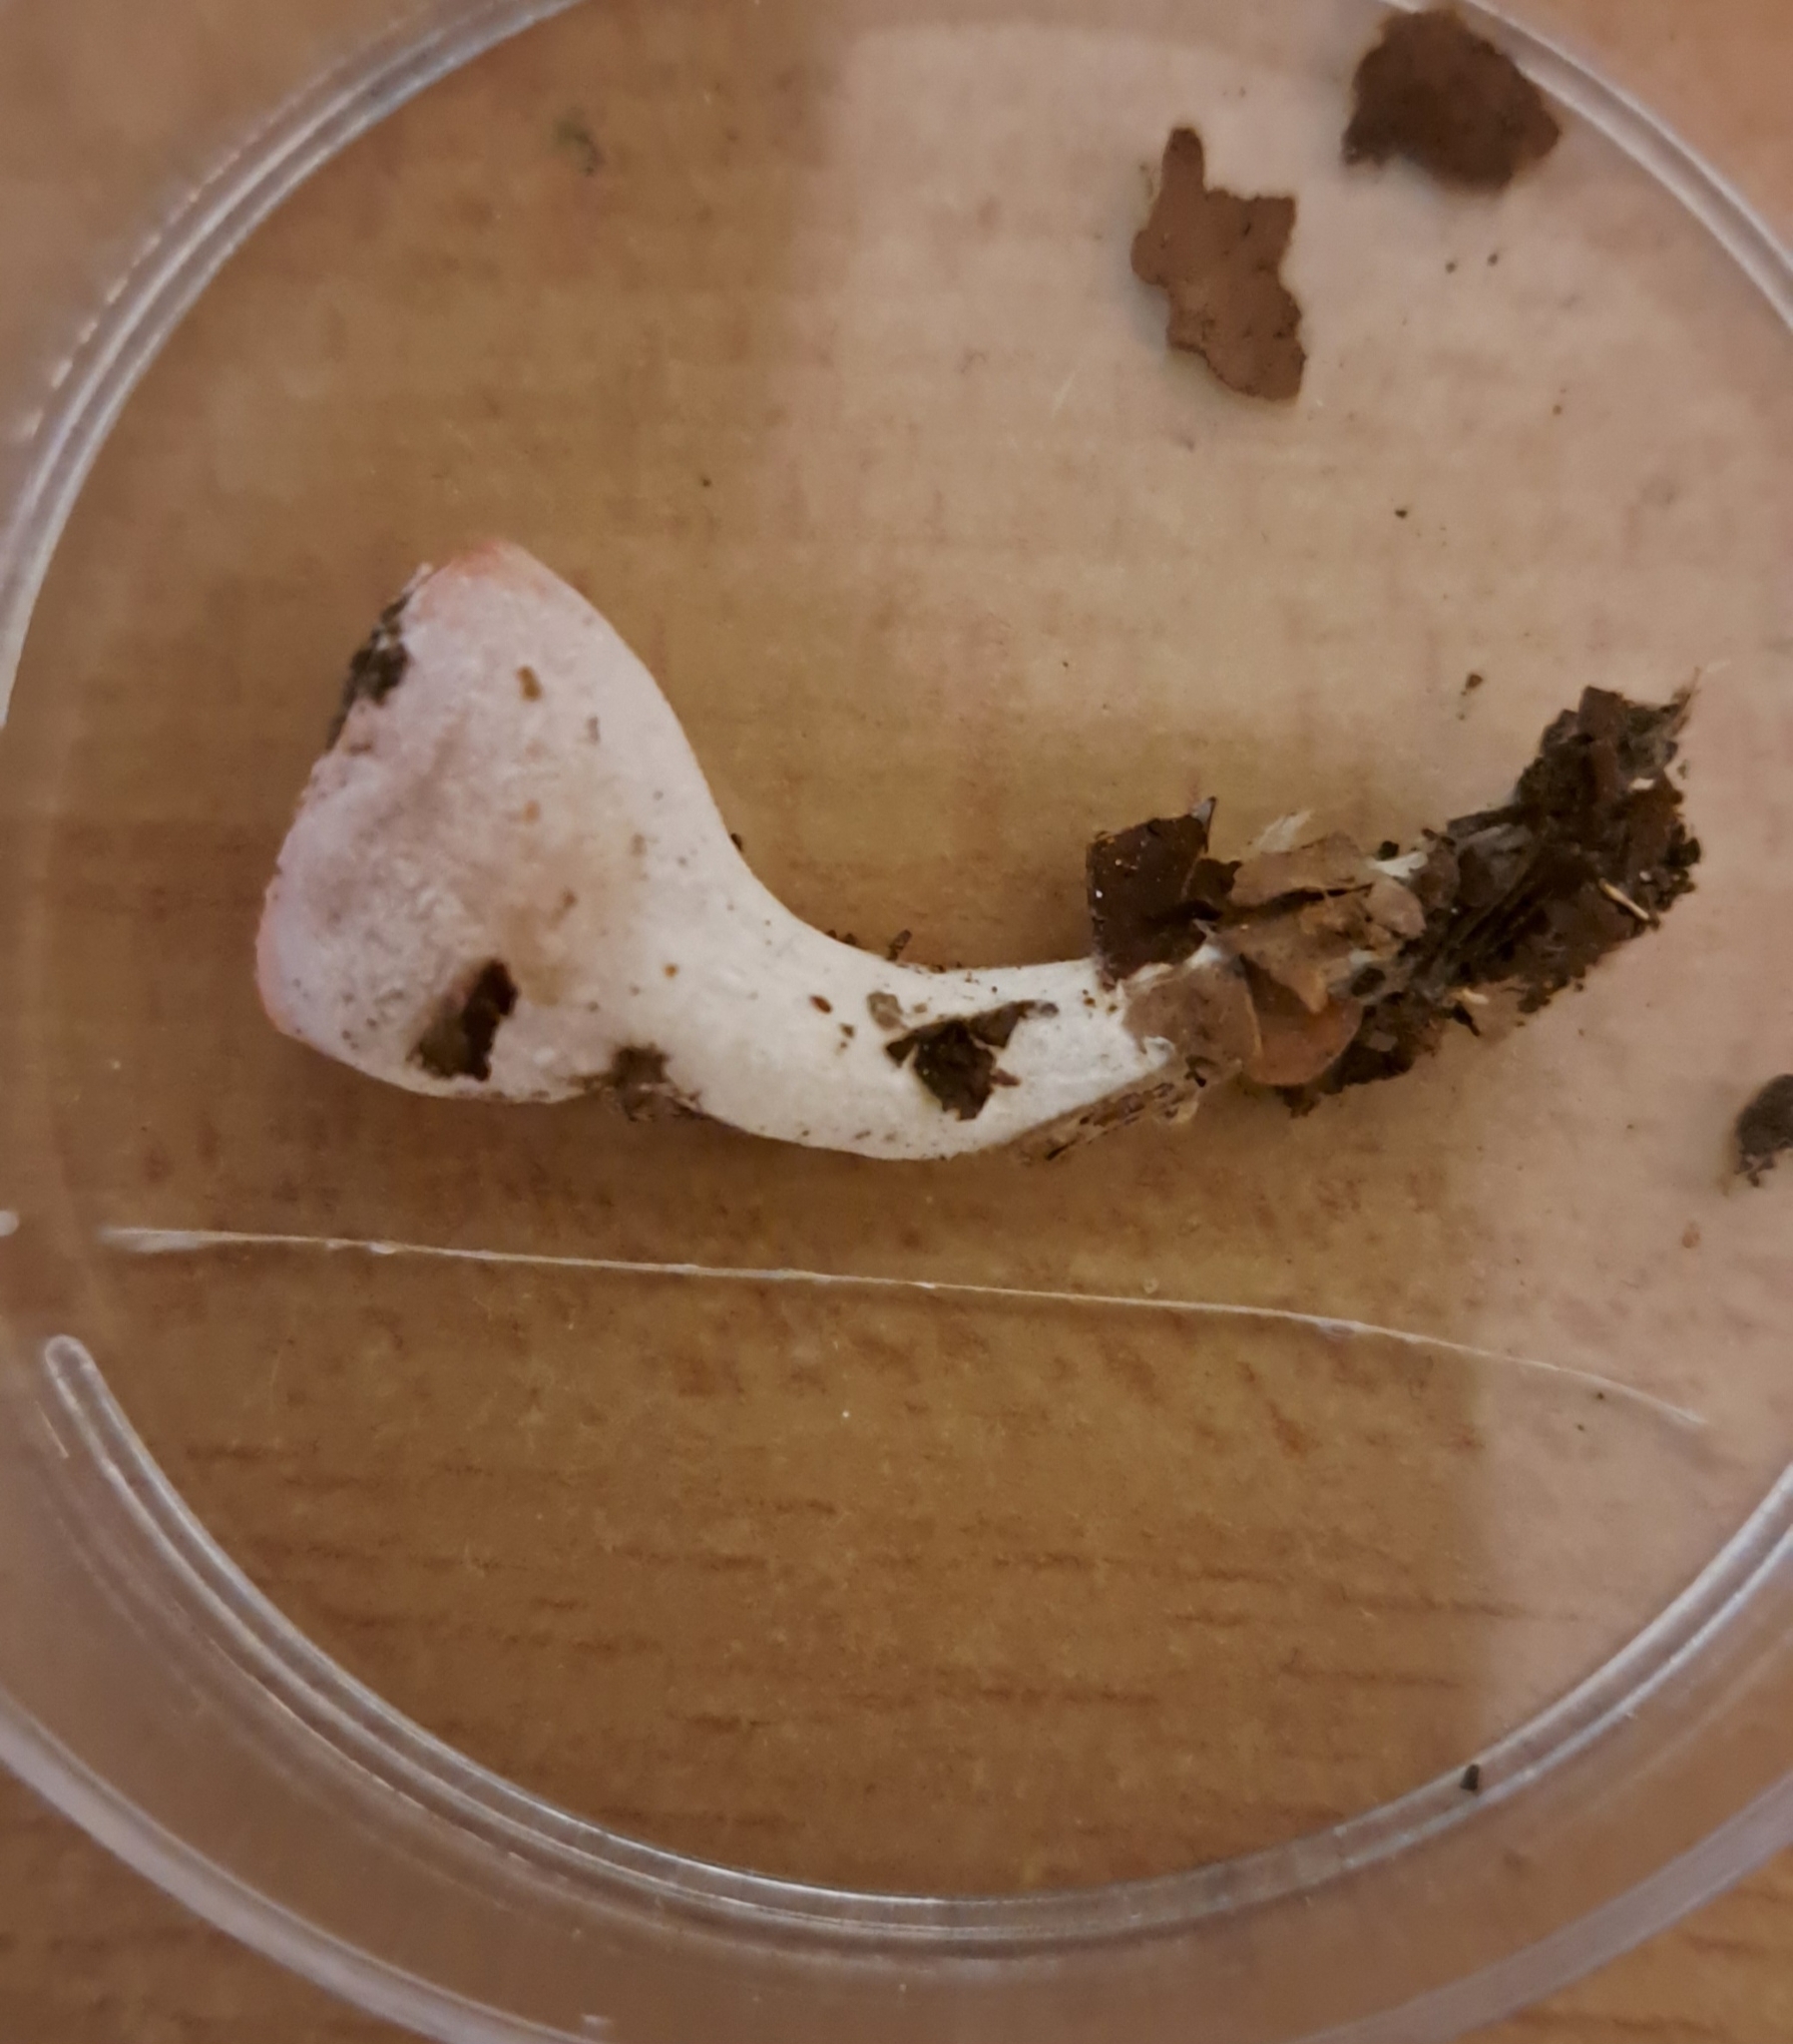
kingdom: Fungi
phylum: Ascomycota
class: Pezizomycetes
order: Pezizales
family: Sarcoscyphaceae
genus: Sarcoscypha
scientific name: Sarcoscypha
